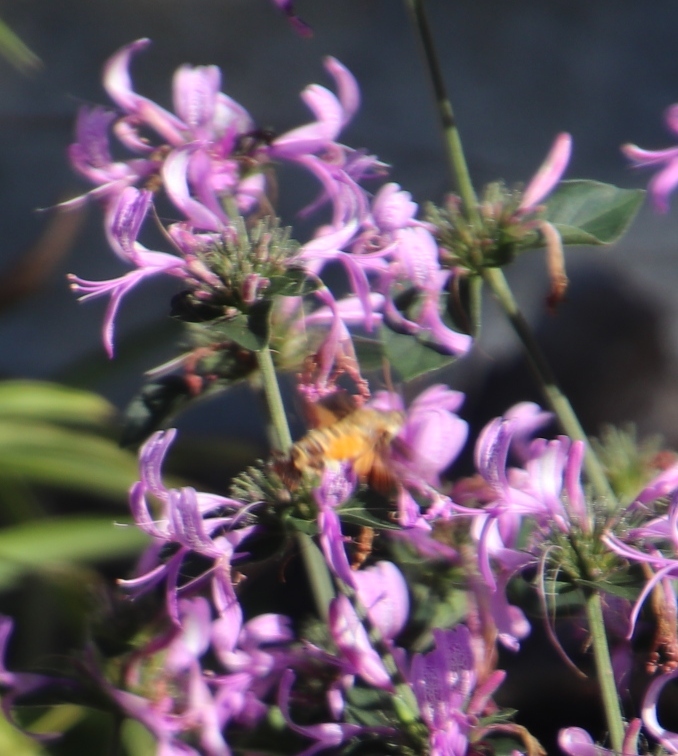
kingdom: Plantae
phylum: Tracheophyta
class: Magnoliopsida
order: Lamiales
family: Acanthaceae
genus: Hypoestes
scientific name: Hypoestes aristata
